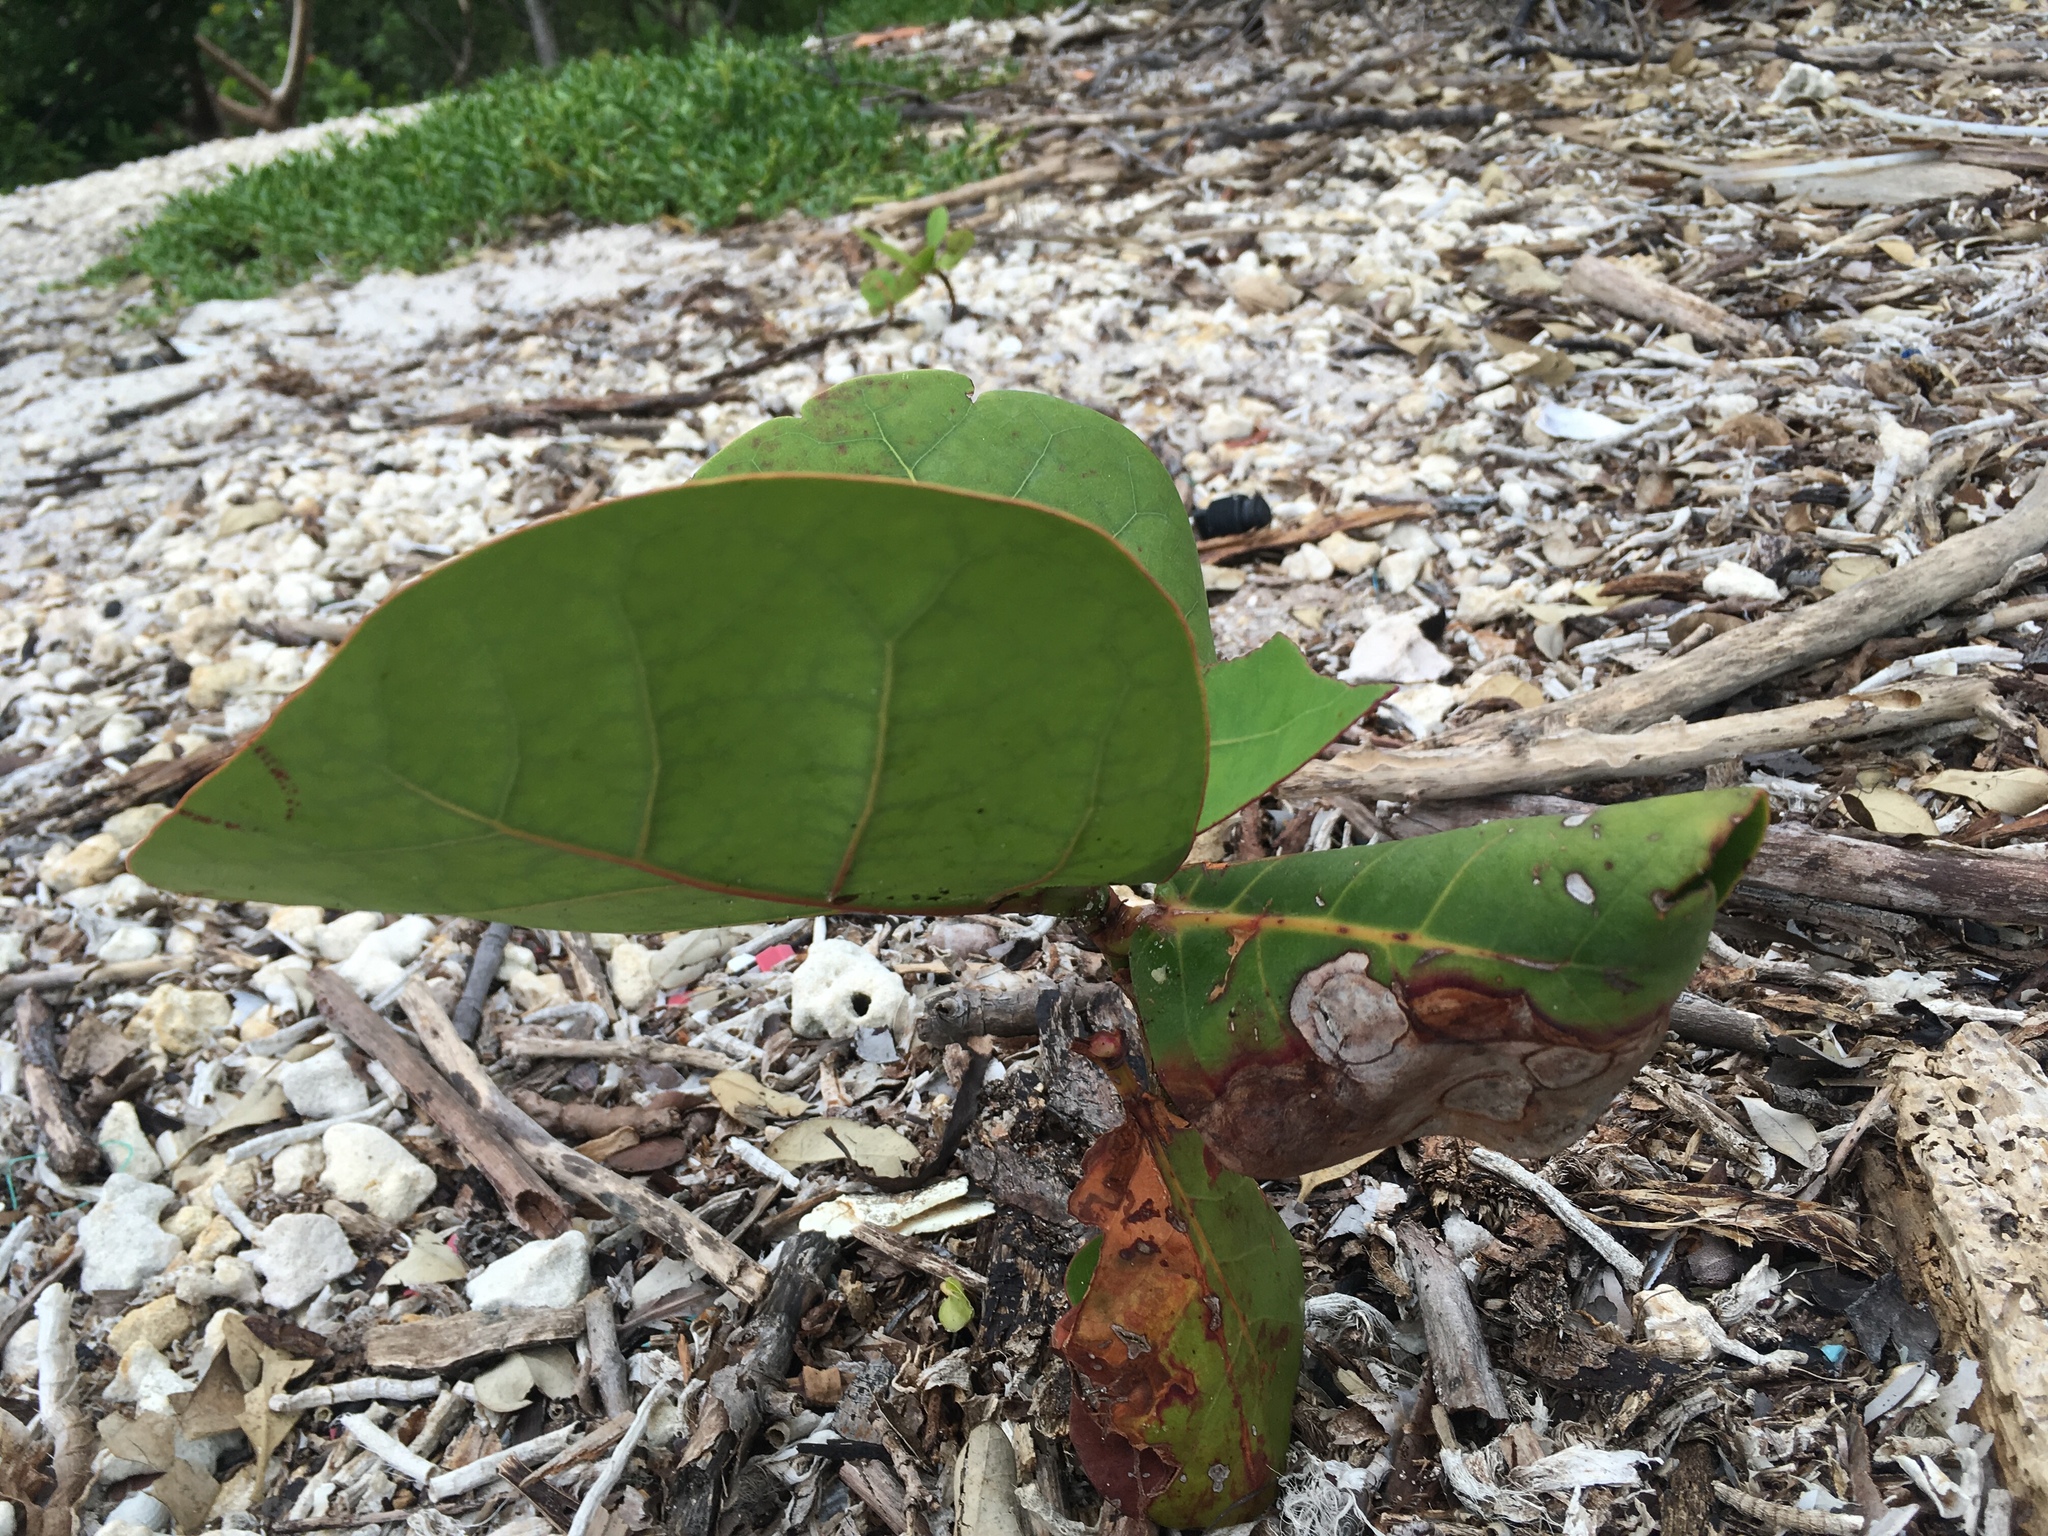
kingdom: Plantae
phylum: Tracheophyta
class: Magnoliopsida
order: Caryophyllales
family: Polygonaceae
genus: Coccoloba
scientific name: Coccoloba uvifera
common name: Seagrape
